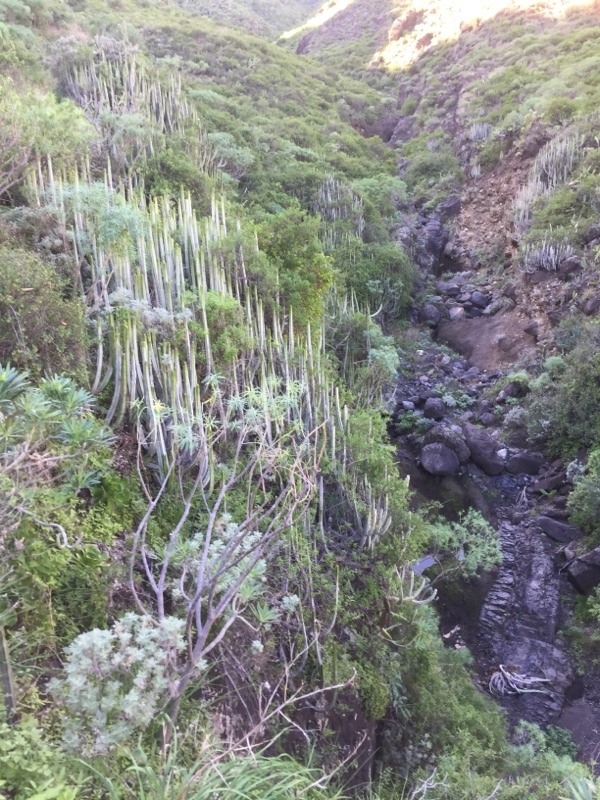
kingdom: Plantae
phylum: Tracheophyta
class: Magnoliopsida
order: Malpighiales
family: Euphorbiaceae
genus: Euphorbia
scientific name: Euphorbia canariensis
